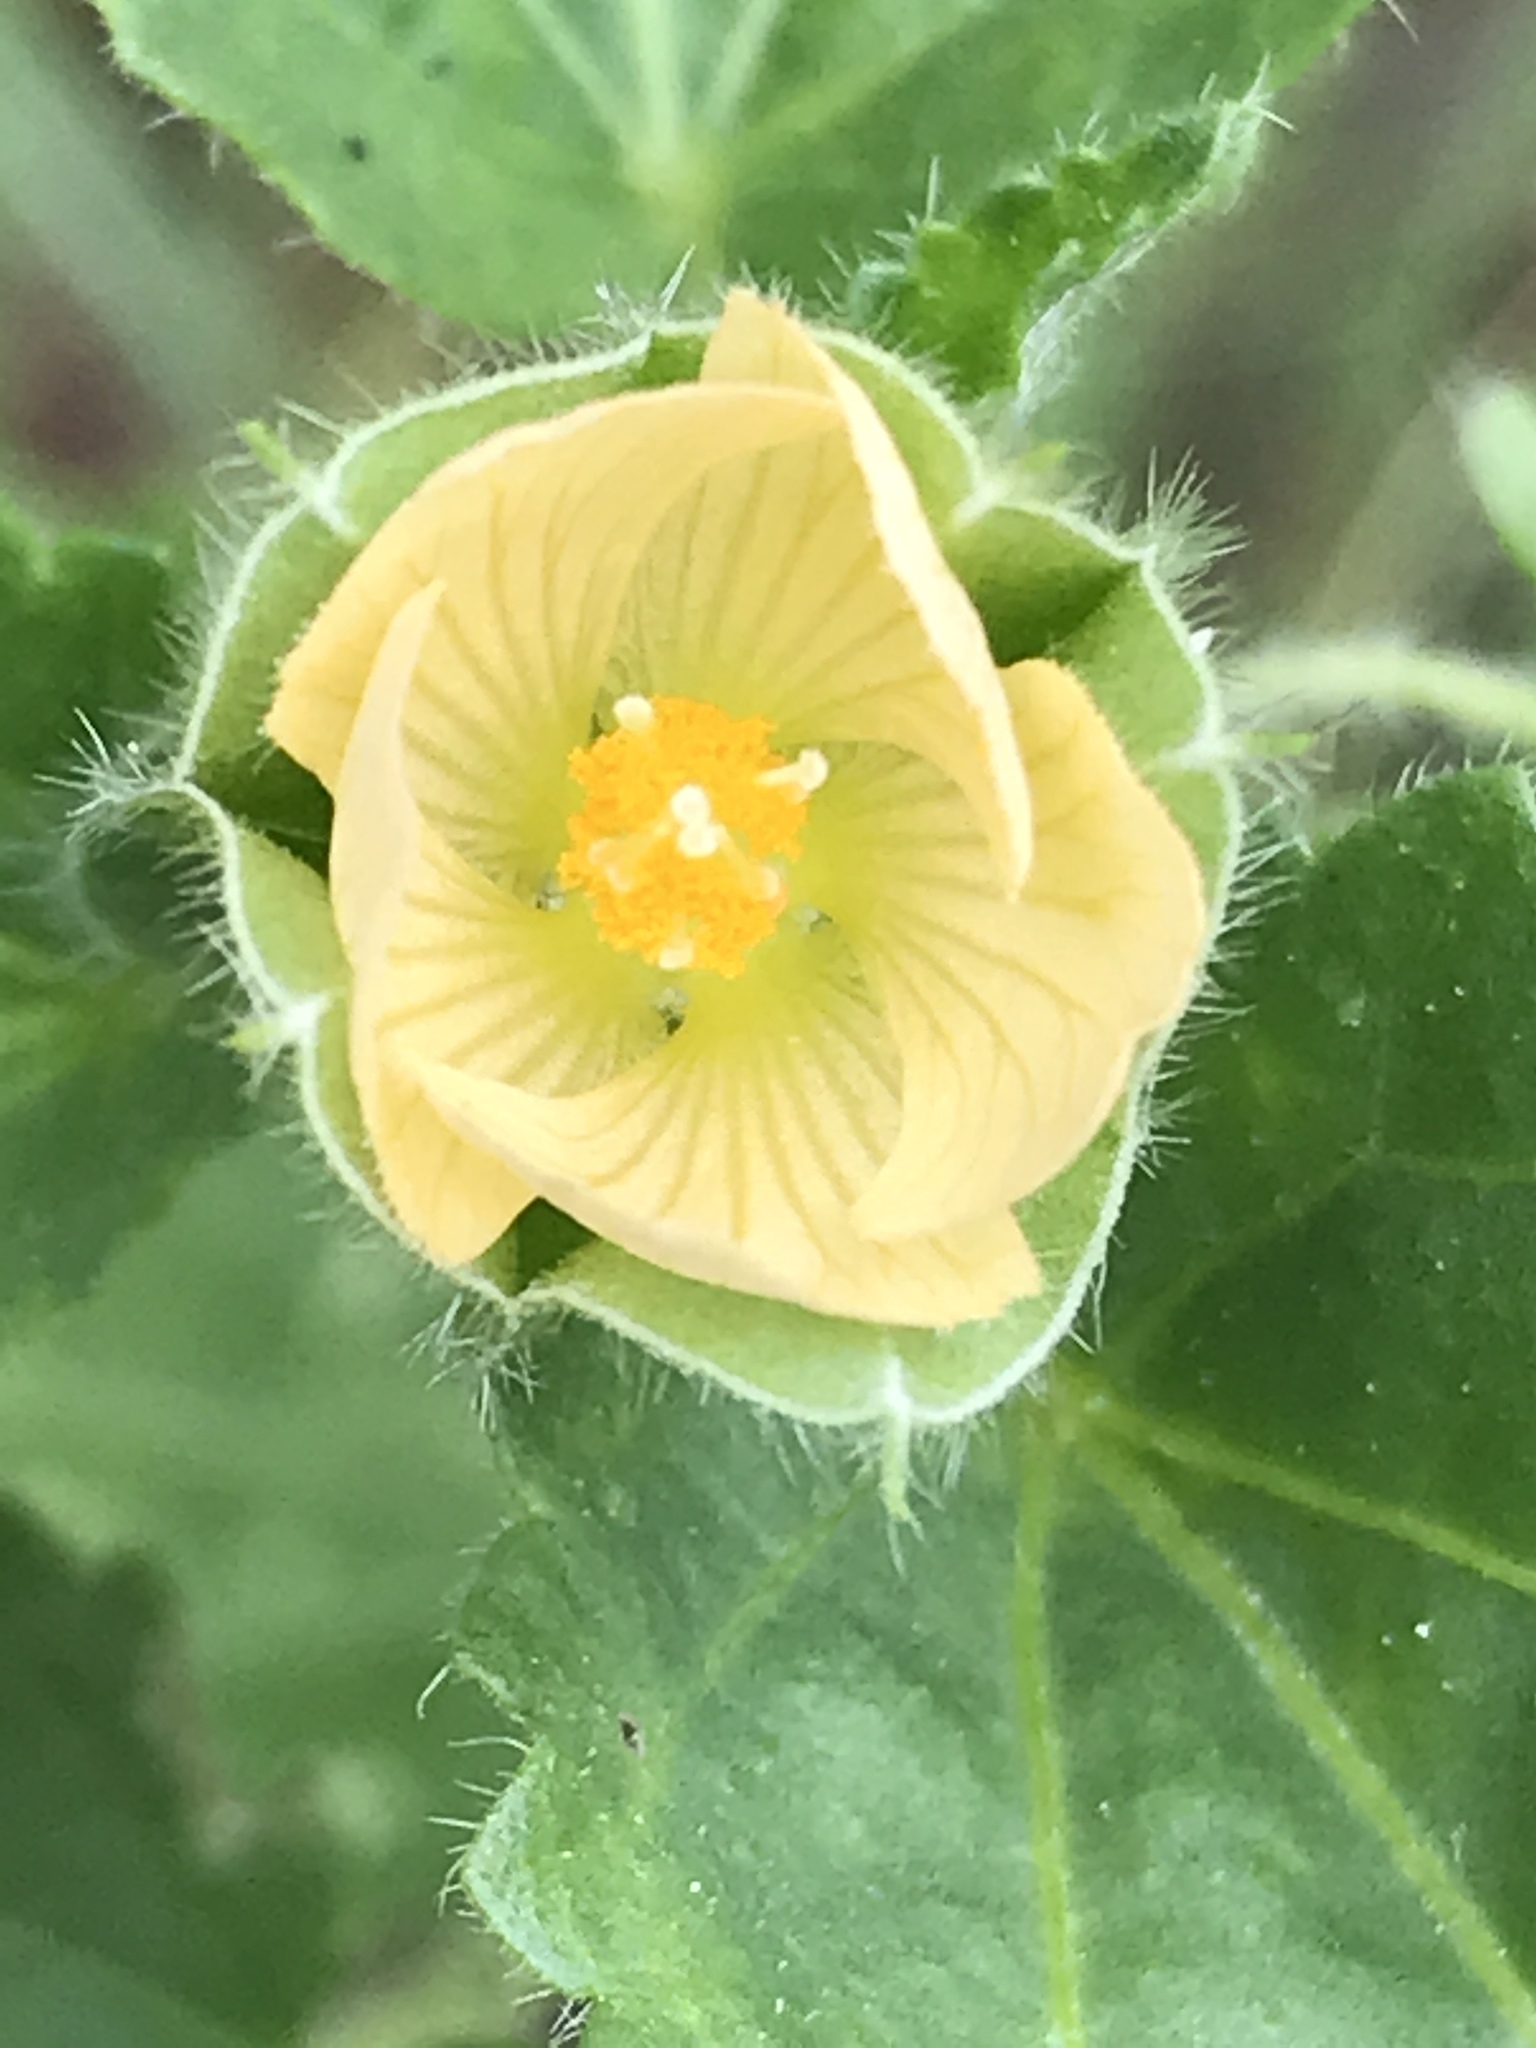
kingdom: Plantae
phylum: Tracheophyta
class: Magnoliopsida
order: Malvales
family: Malvaceae
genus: Rhynchosida
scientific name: Rhynchosida physocalyx
